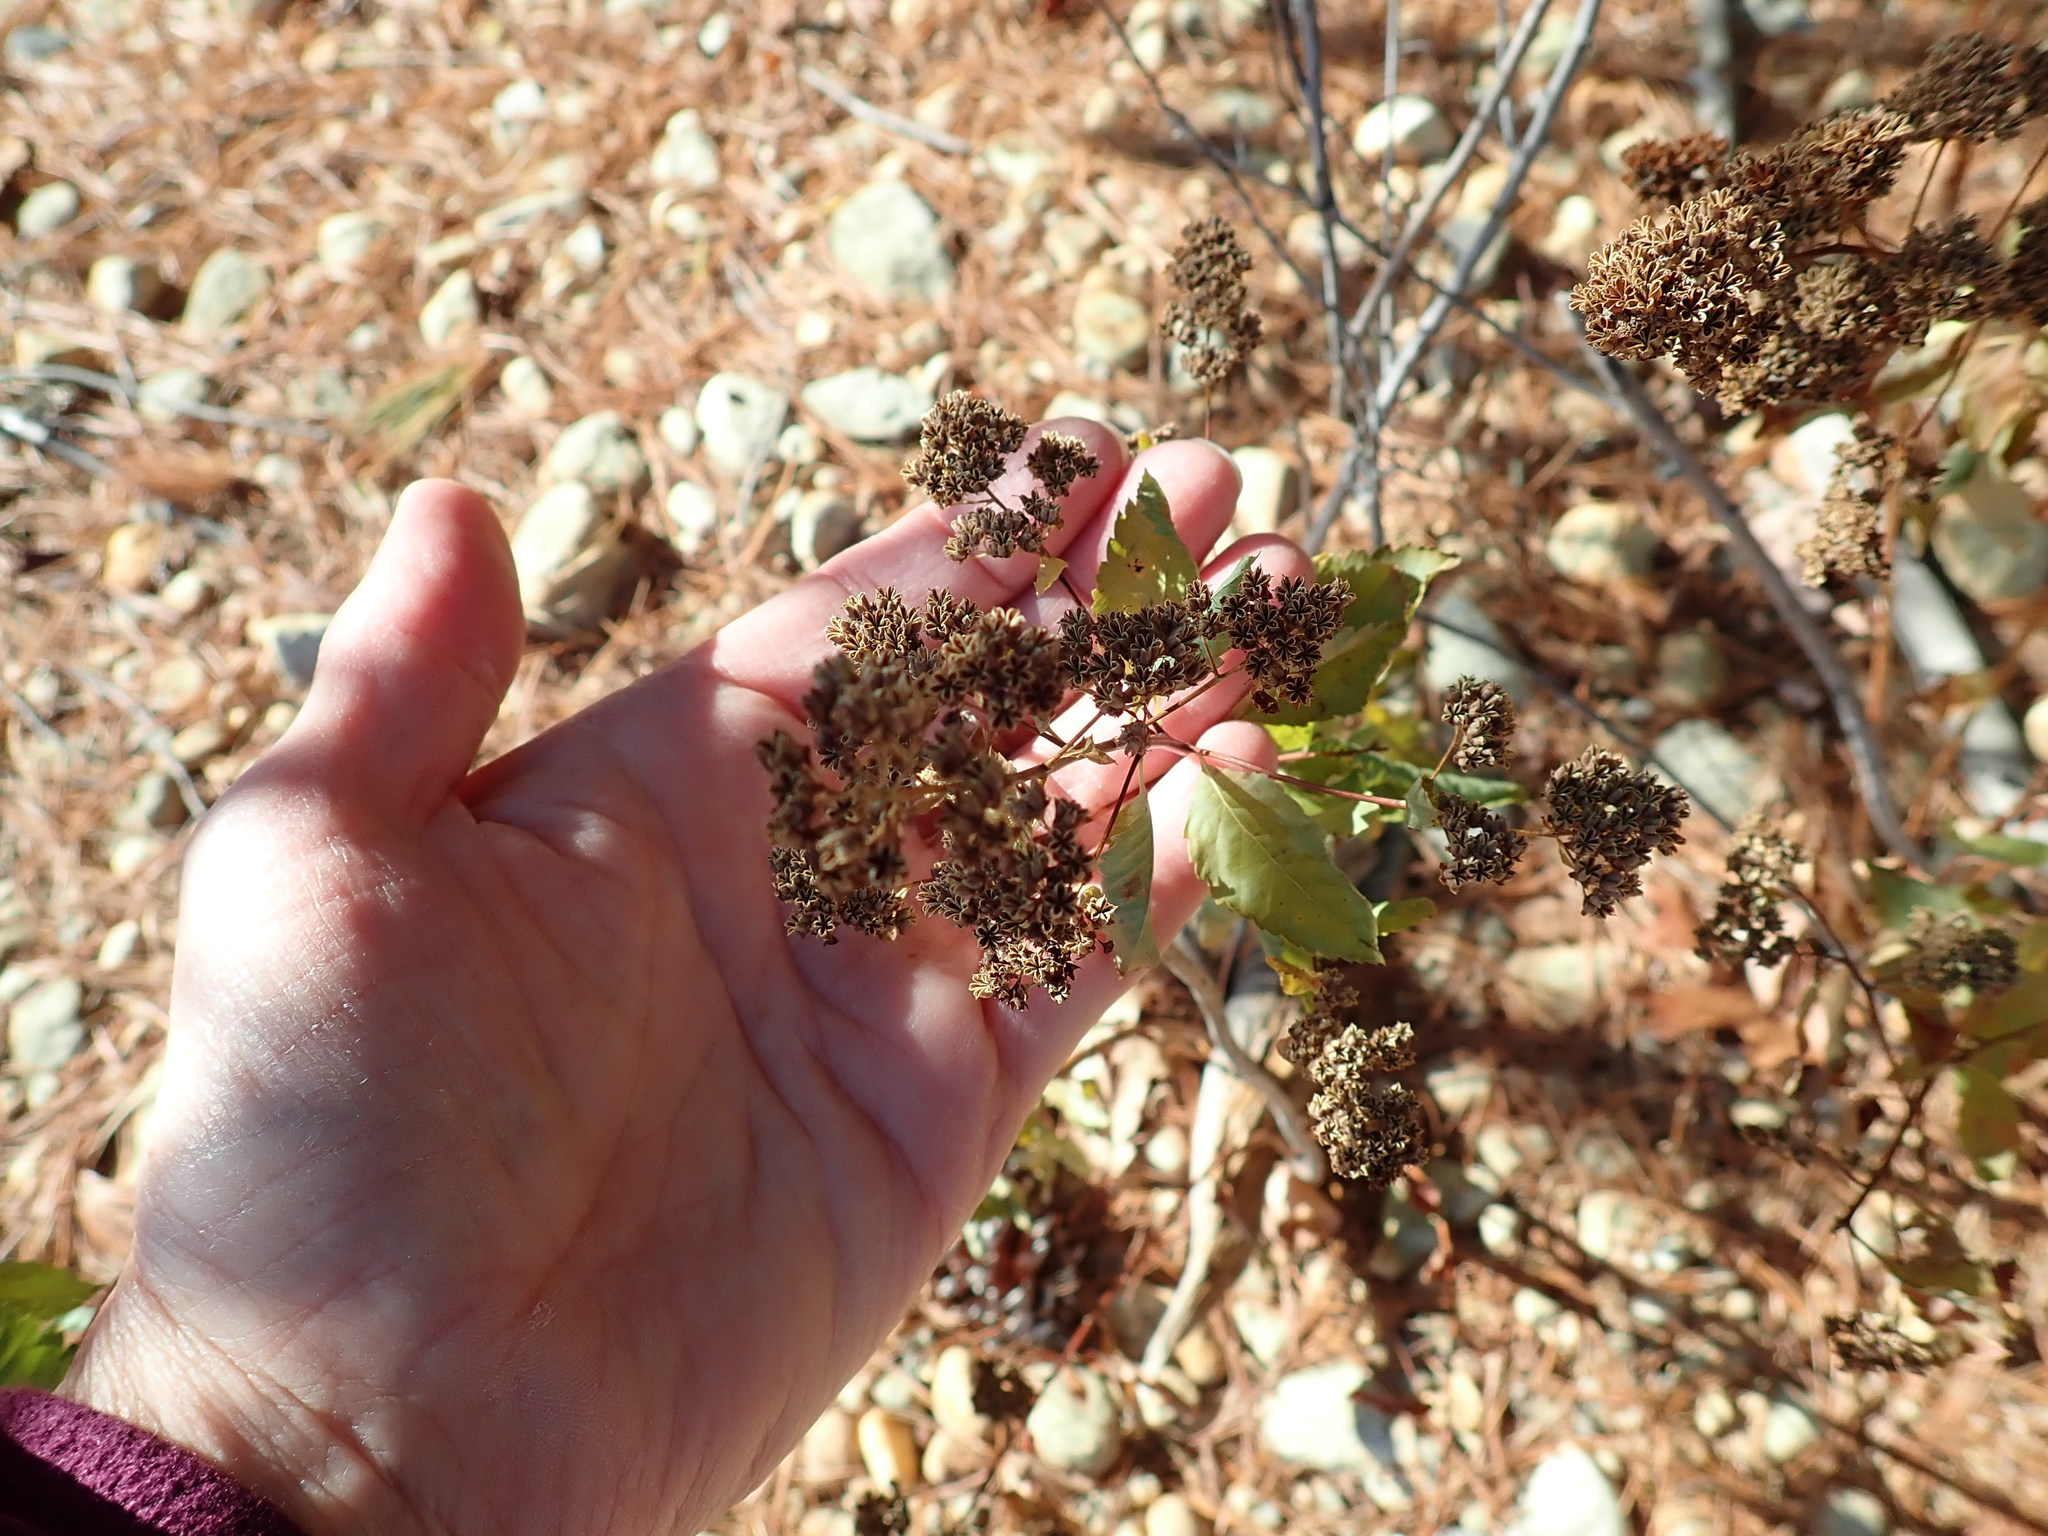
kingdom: Plantae
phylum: Tracheophyta
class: Magnoliopsida
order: Rosales
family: Rosaceae
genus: Spiraea
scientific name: Spiraea alba
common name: Pale bridewort
